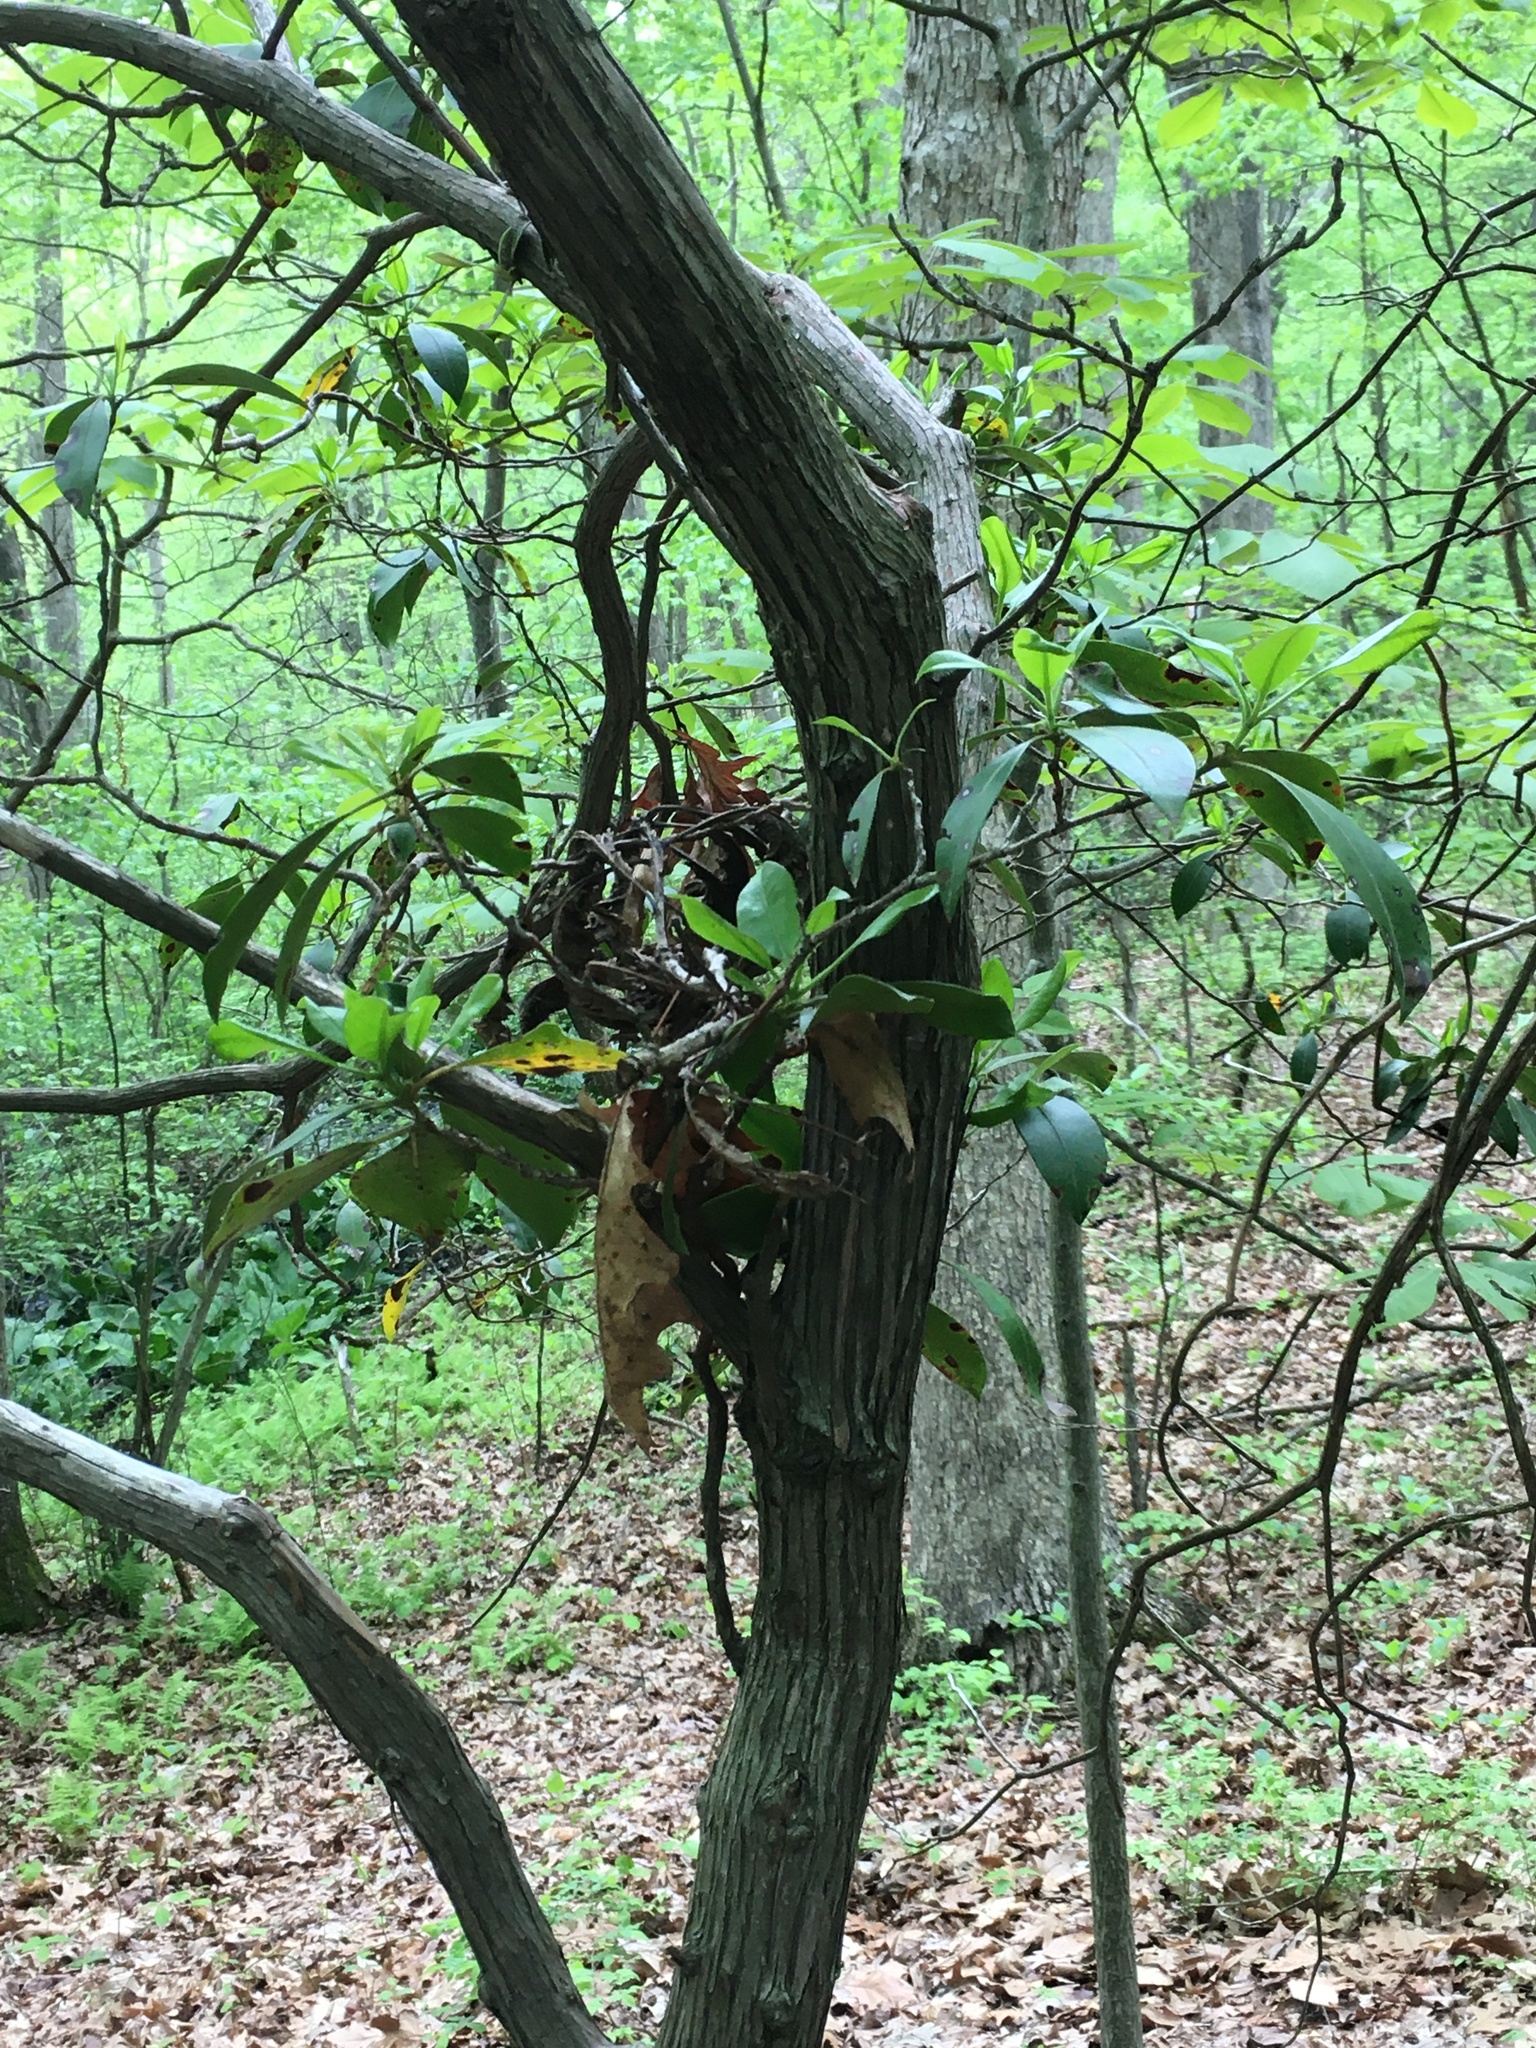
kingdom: Plantae
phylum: Tracheophyta
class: Magnoliopsida
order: Ericales
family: Ericaceae
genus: Kalmia
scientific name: Kalmia latifolia
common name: Mountain-laurel
